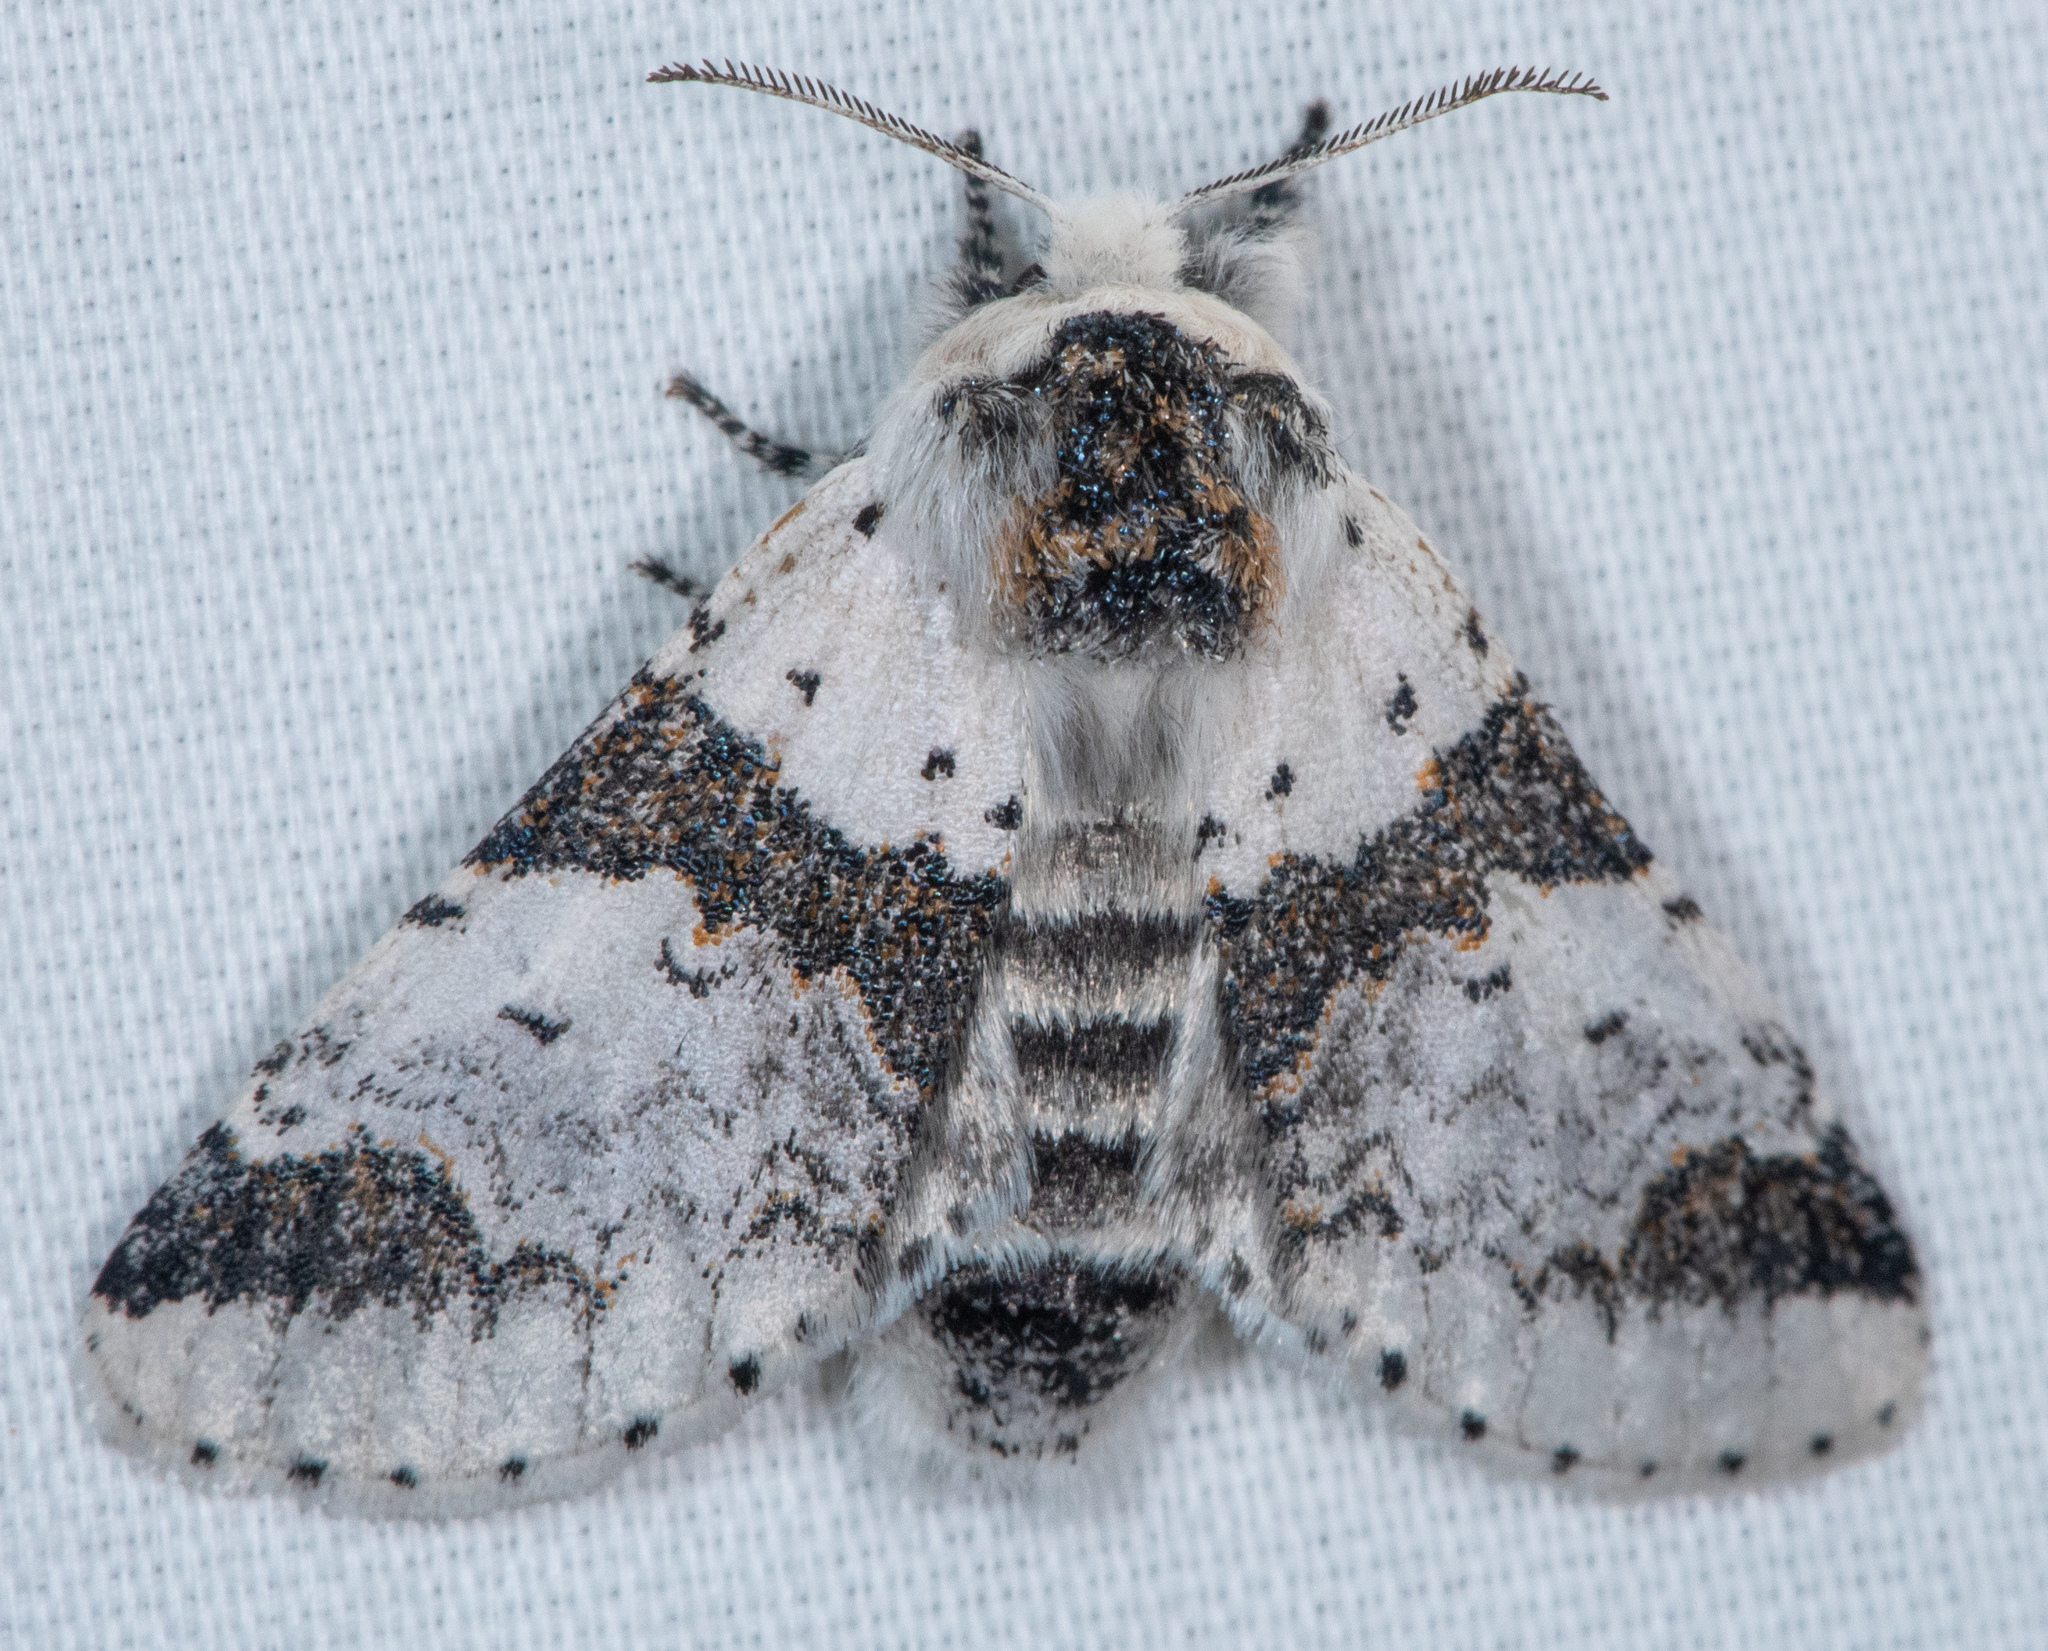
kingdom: Animalia
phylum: Arthropoda
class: Insecta
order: Lepidoptera
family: Notodontidae
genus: Furcula
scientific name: Furcula scolopendrina
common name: Zigzag furcula moth
